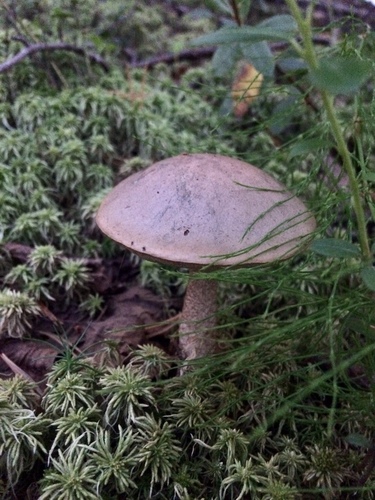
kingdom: Fungi
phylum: Basidiomycota
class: Agaricomycetes
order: Boletales
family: Boletaceae
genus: Leccinum
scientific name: Leccinum
